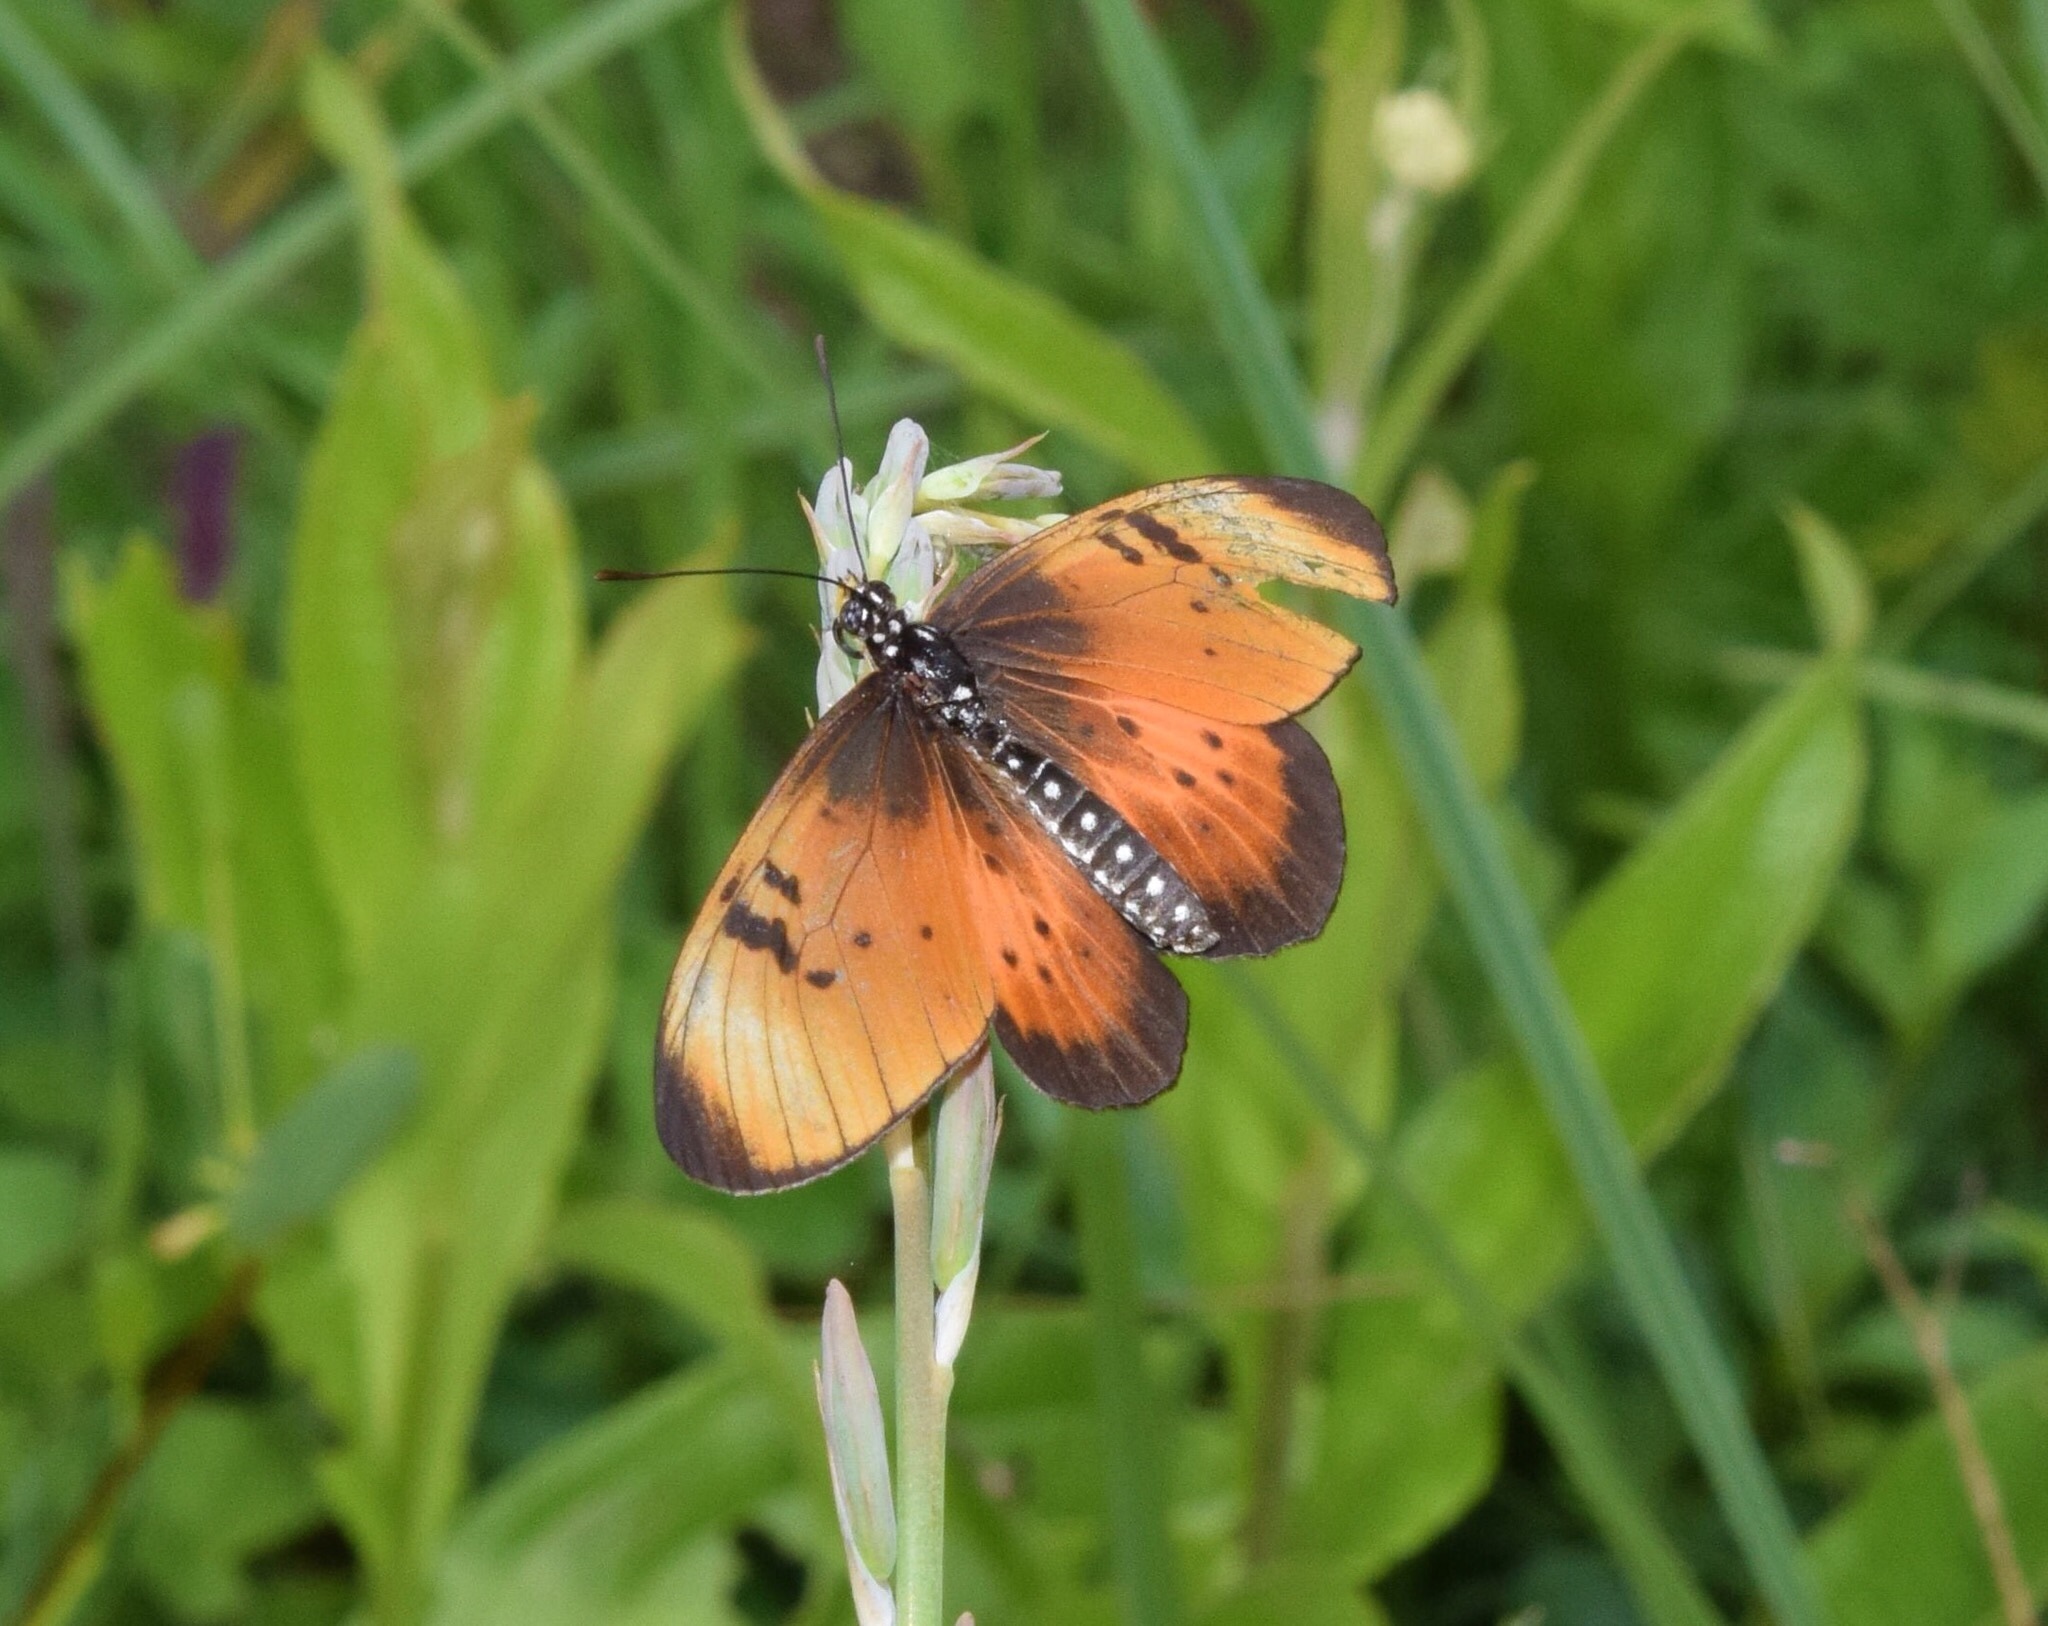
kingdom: Animalia
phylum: Arthropoda
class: Insecta
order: Lepidoptera
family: Nymphalidae
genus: Stephenia
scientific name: Stephenia
